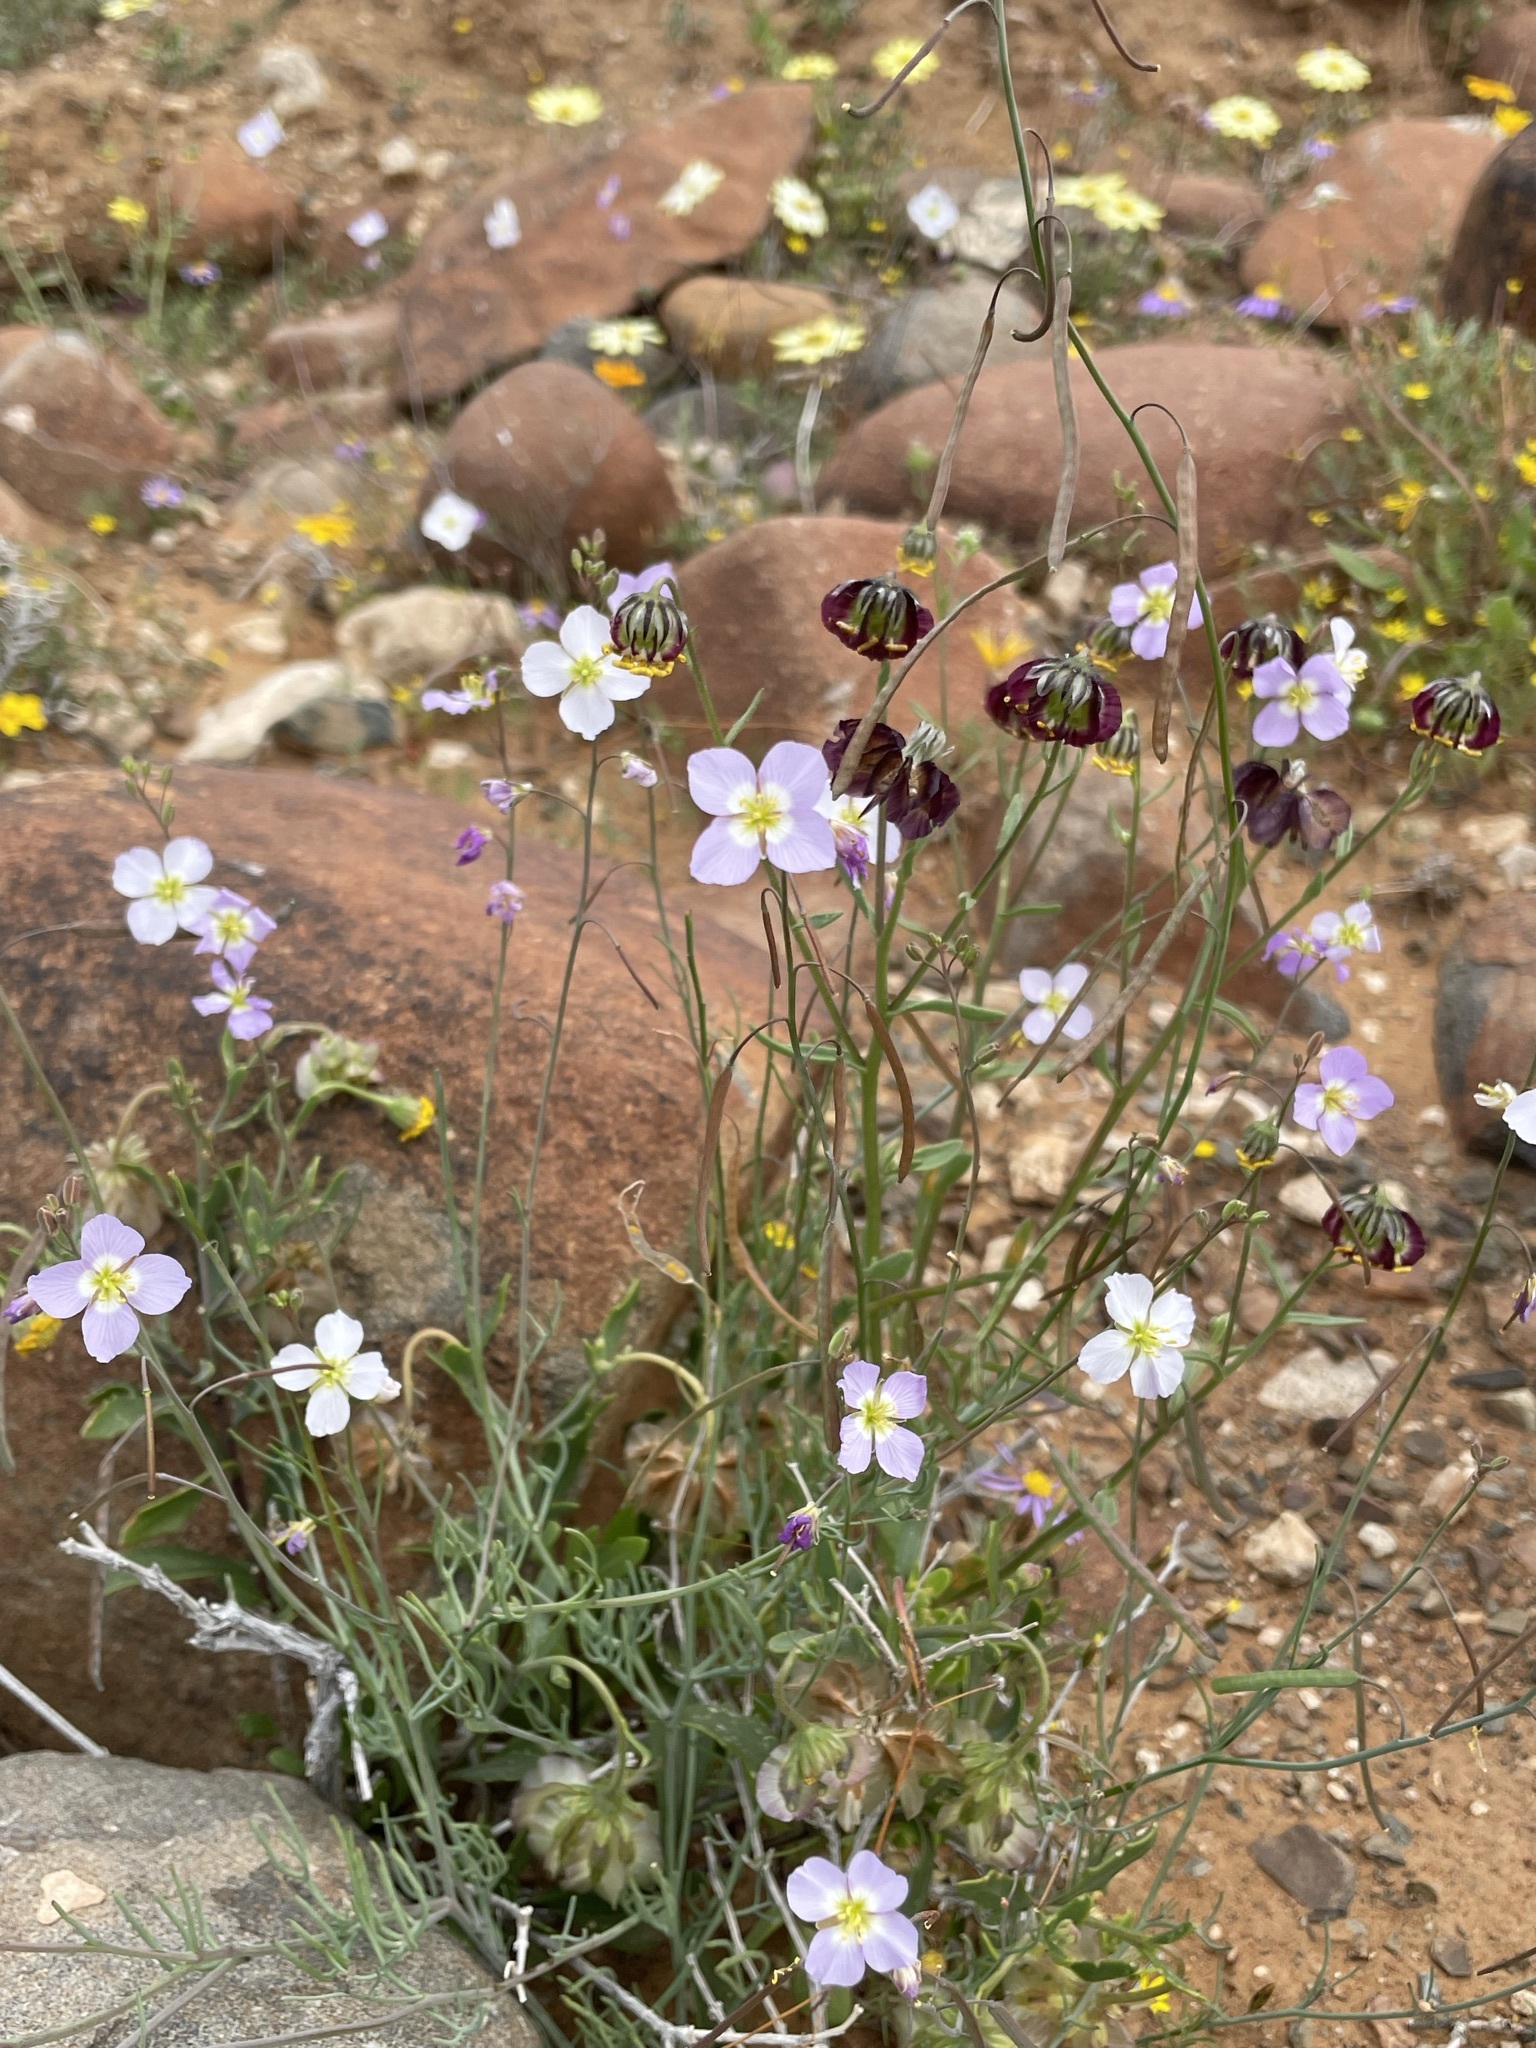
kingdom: Plantae
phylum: Tracheophyta
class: Magnoliopsida
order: Brassicales
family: Brassicaceae
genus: Heliophila
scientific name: Heliophila deserticola
